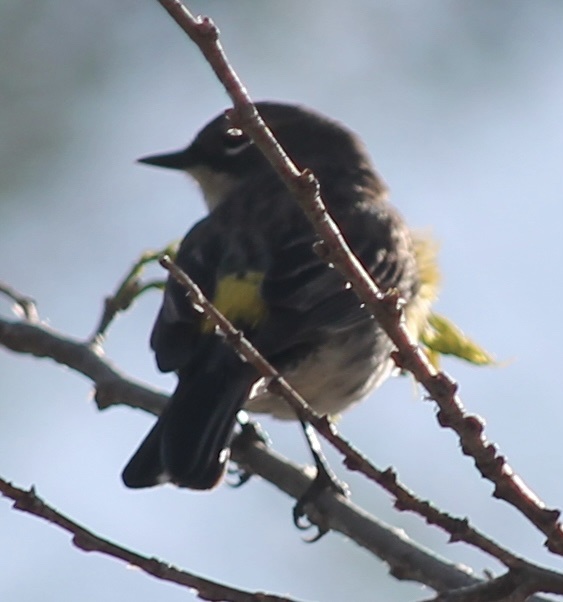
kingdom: Animalia
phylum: Chordata
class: Aves
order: Passeriformes
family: Parulidae
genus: Setophaga
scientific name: Setophaga coronata
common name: Myrtle warbler
